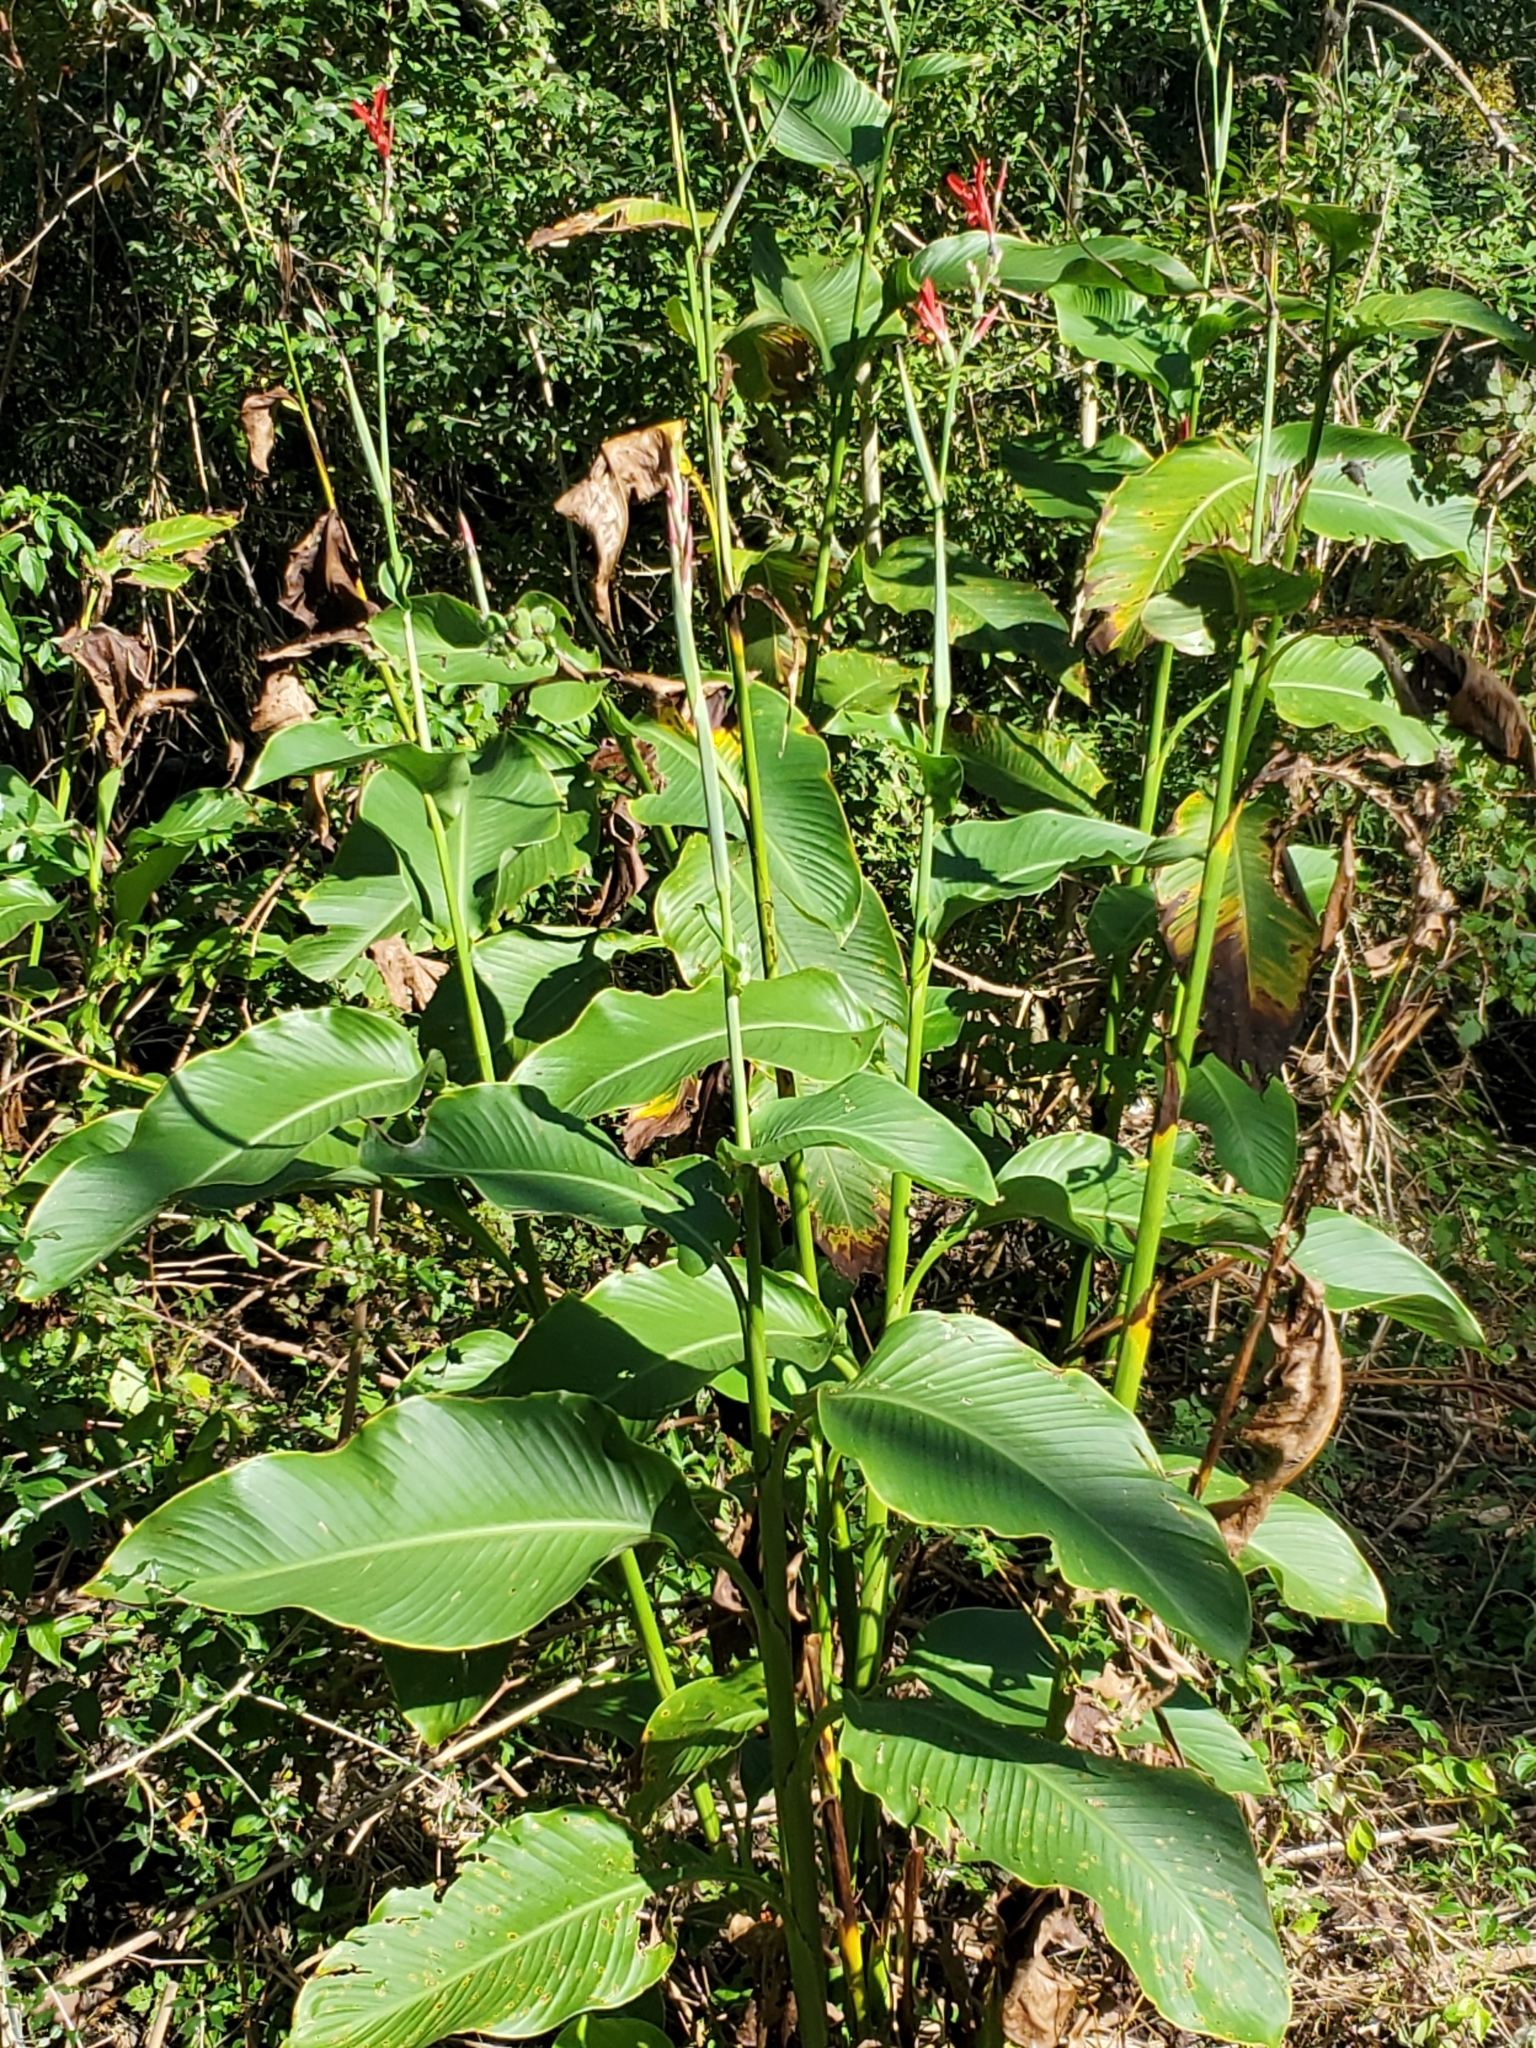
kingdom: Plantae
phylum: Tracheophyta
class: Liliopsida
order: Zingiberales
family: Cannaceae
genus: Canna
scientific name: Canna indica
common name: Indian shot
